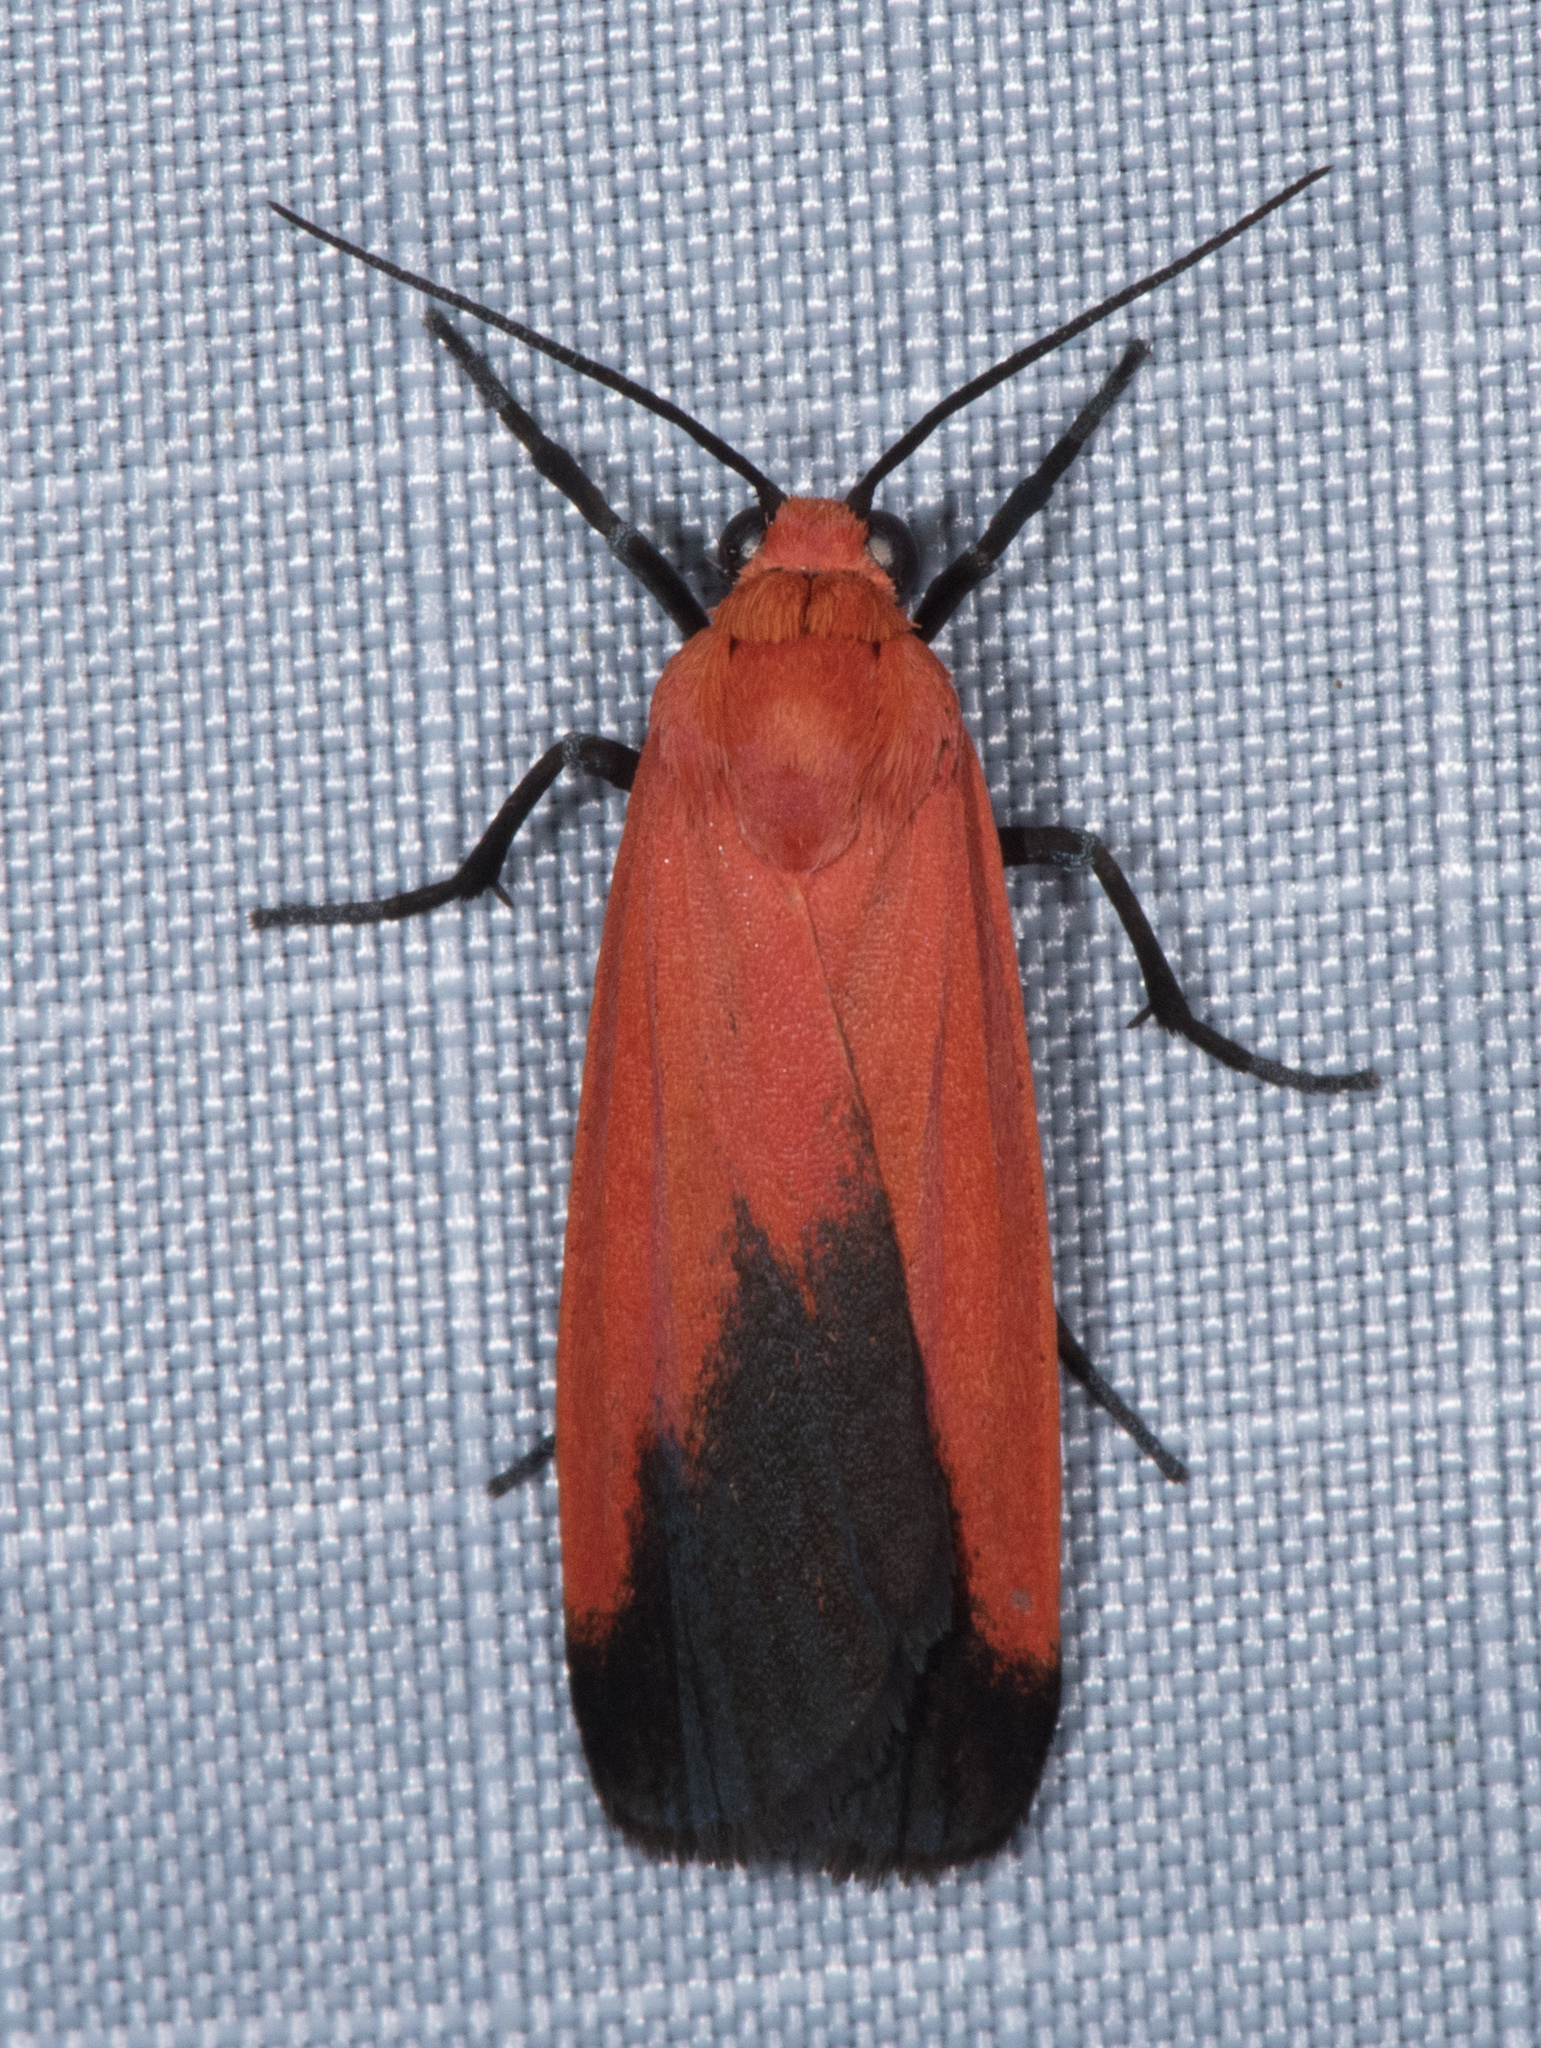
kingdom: Animalia
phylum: Arthropoda
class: Insecta
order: Lepidoptera
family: Erebidae
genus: Ptychoglene
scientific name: Ptychoglene coccinea
